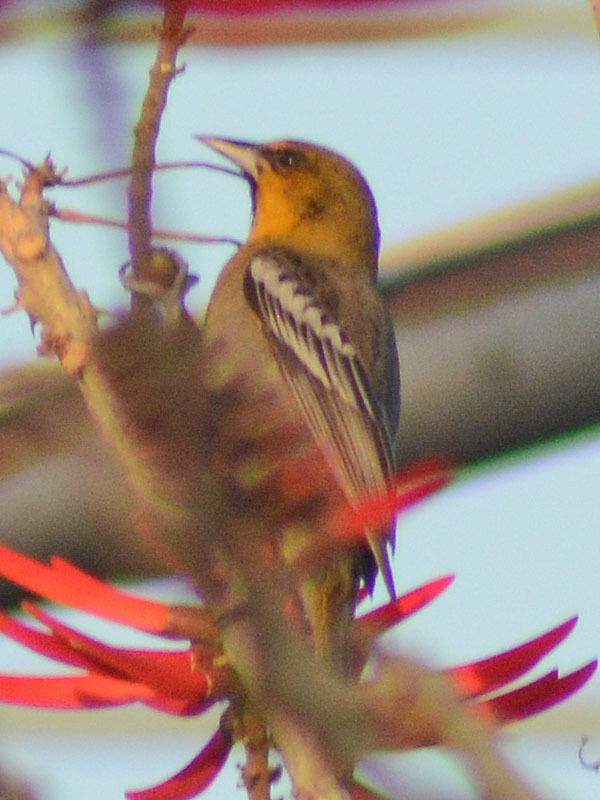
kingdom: Animalia
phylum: Chordata
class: Aves
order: Passeriformes
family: Icteridae
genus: Icterus
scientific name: Icterus abeillei
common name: Black-backed oriole
